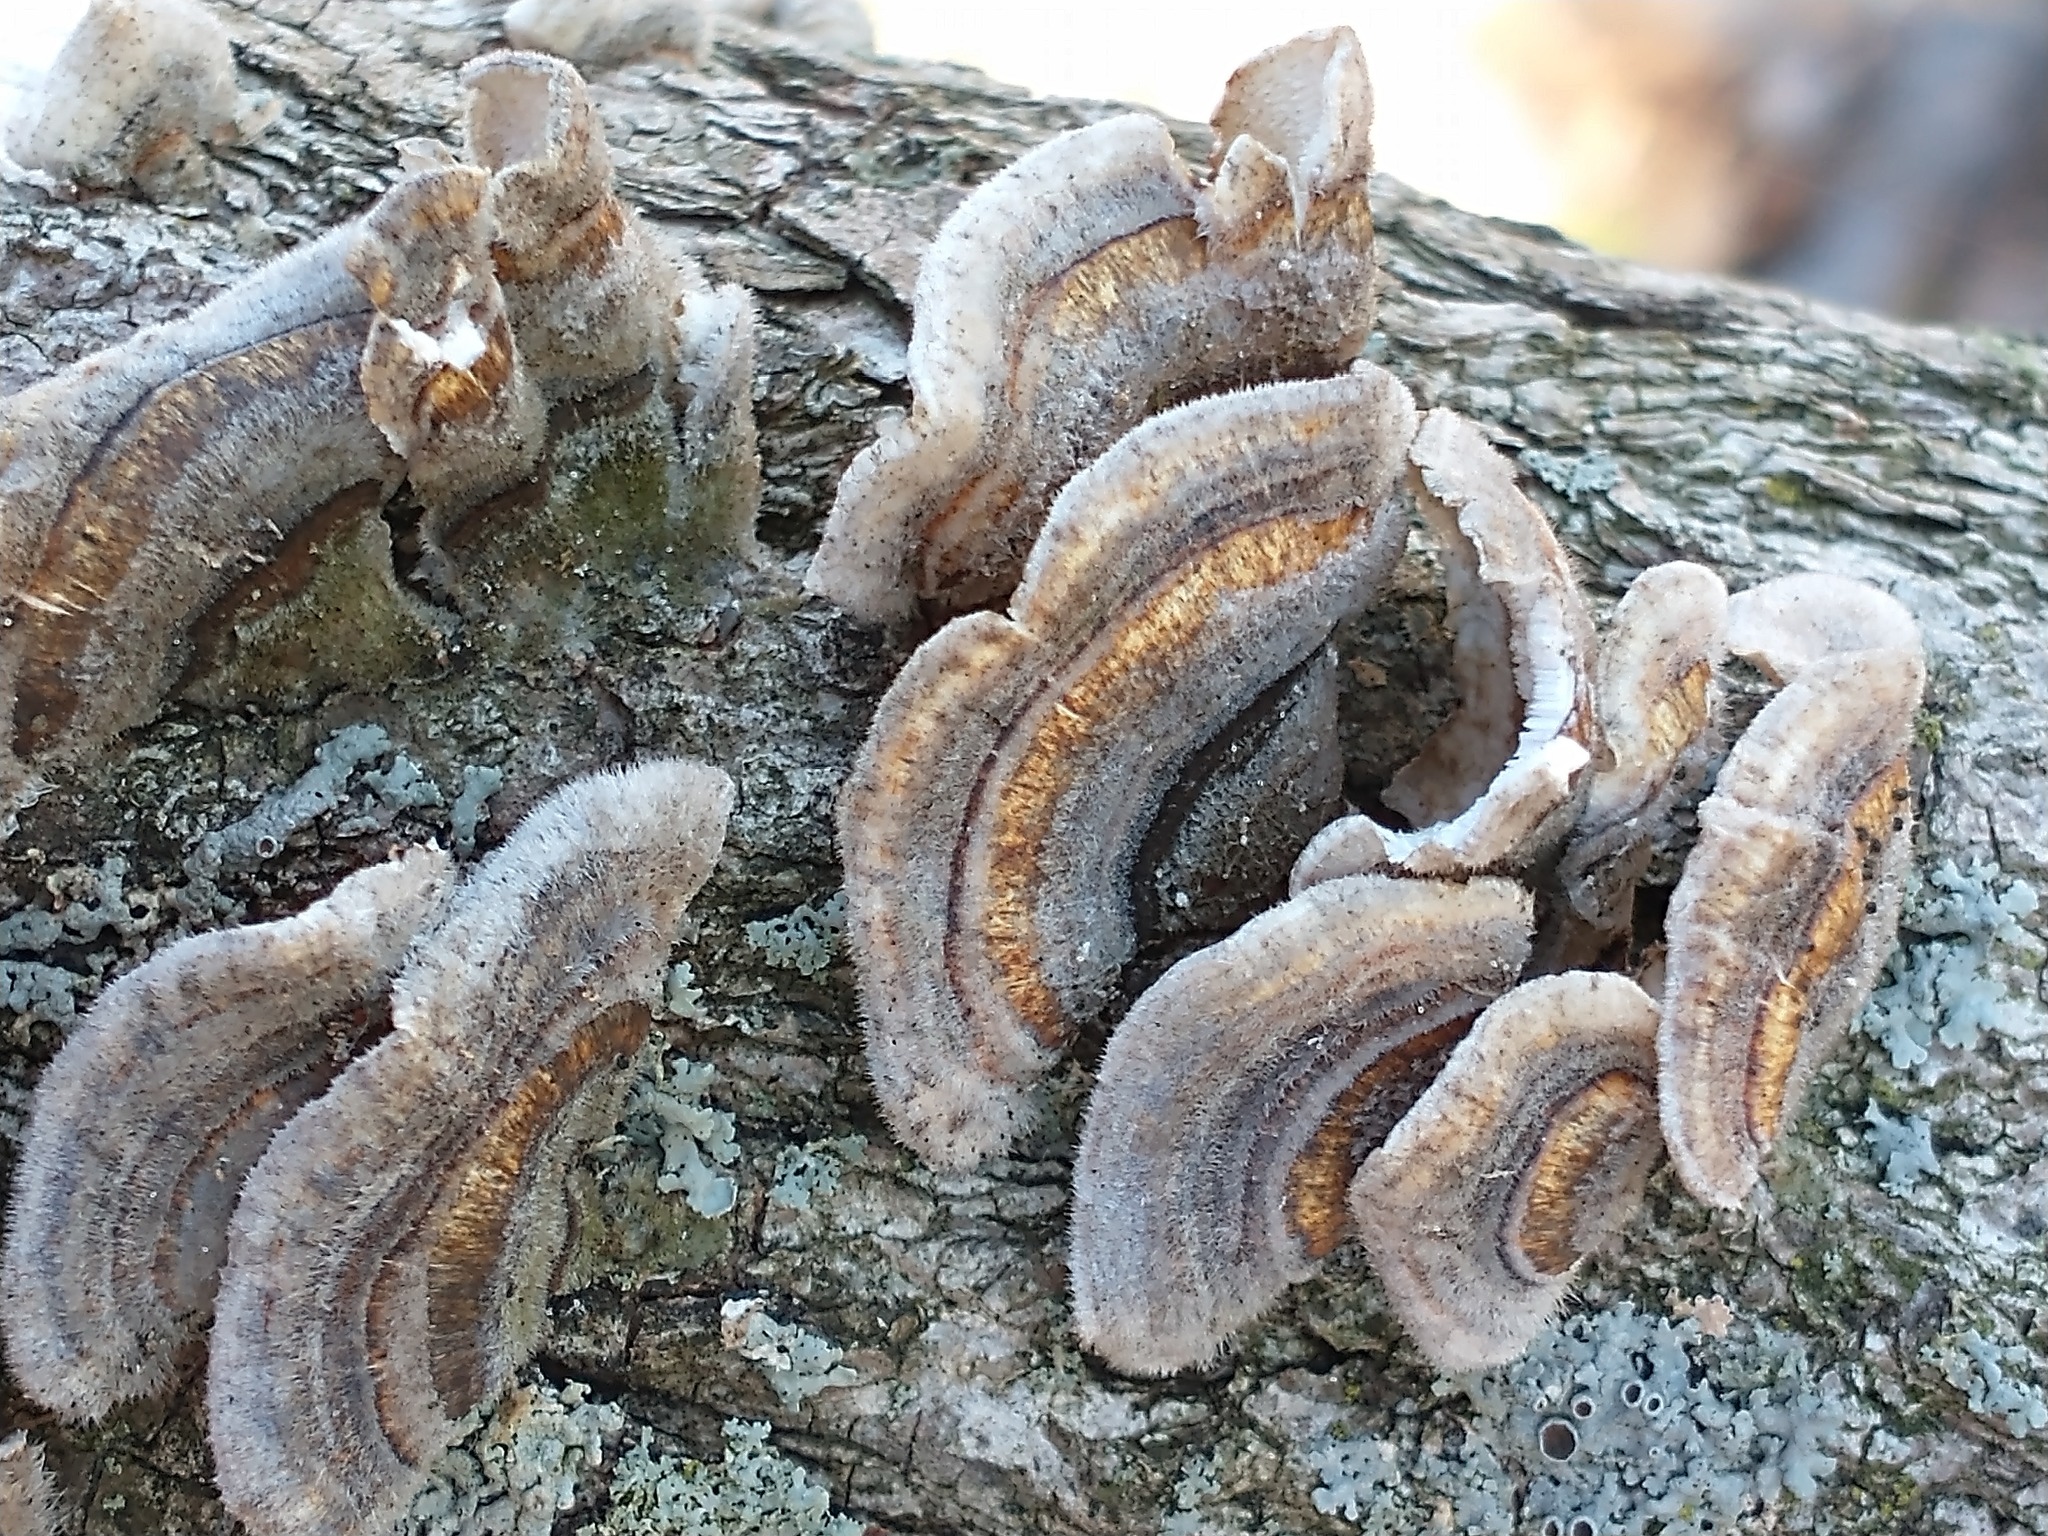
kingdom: Fungi
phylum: Basidiomycota
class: Agaricomycetes
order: Polyporales
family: Polyporaceae
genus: Trametes
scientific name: Trametes versicolor
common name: Turkeytail
